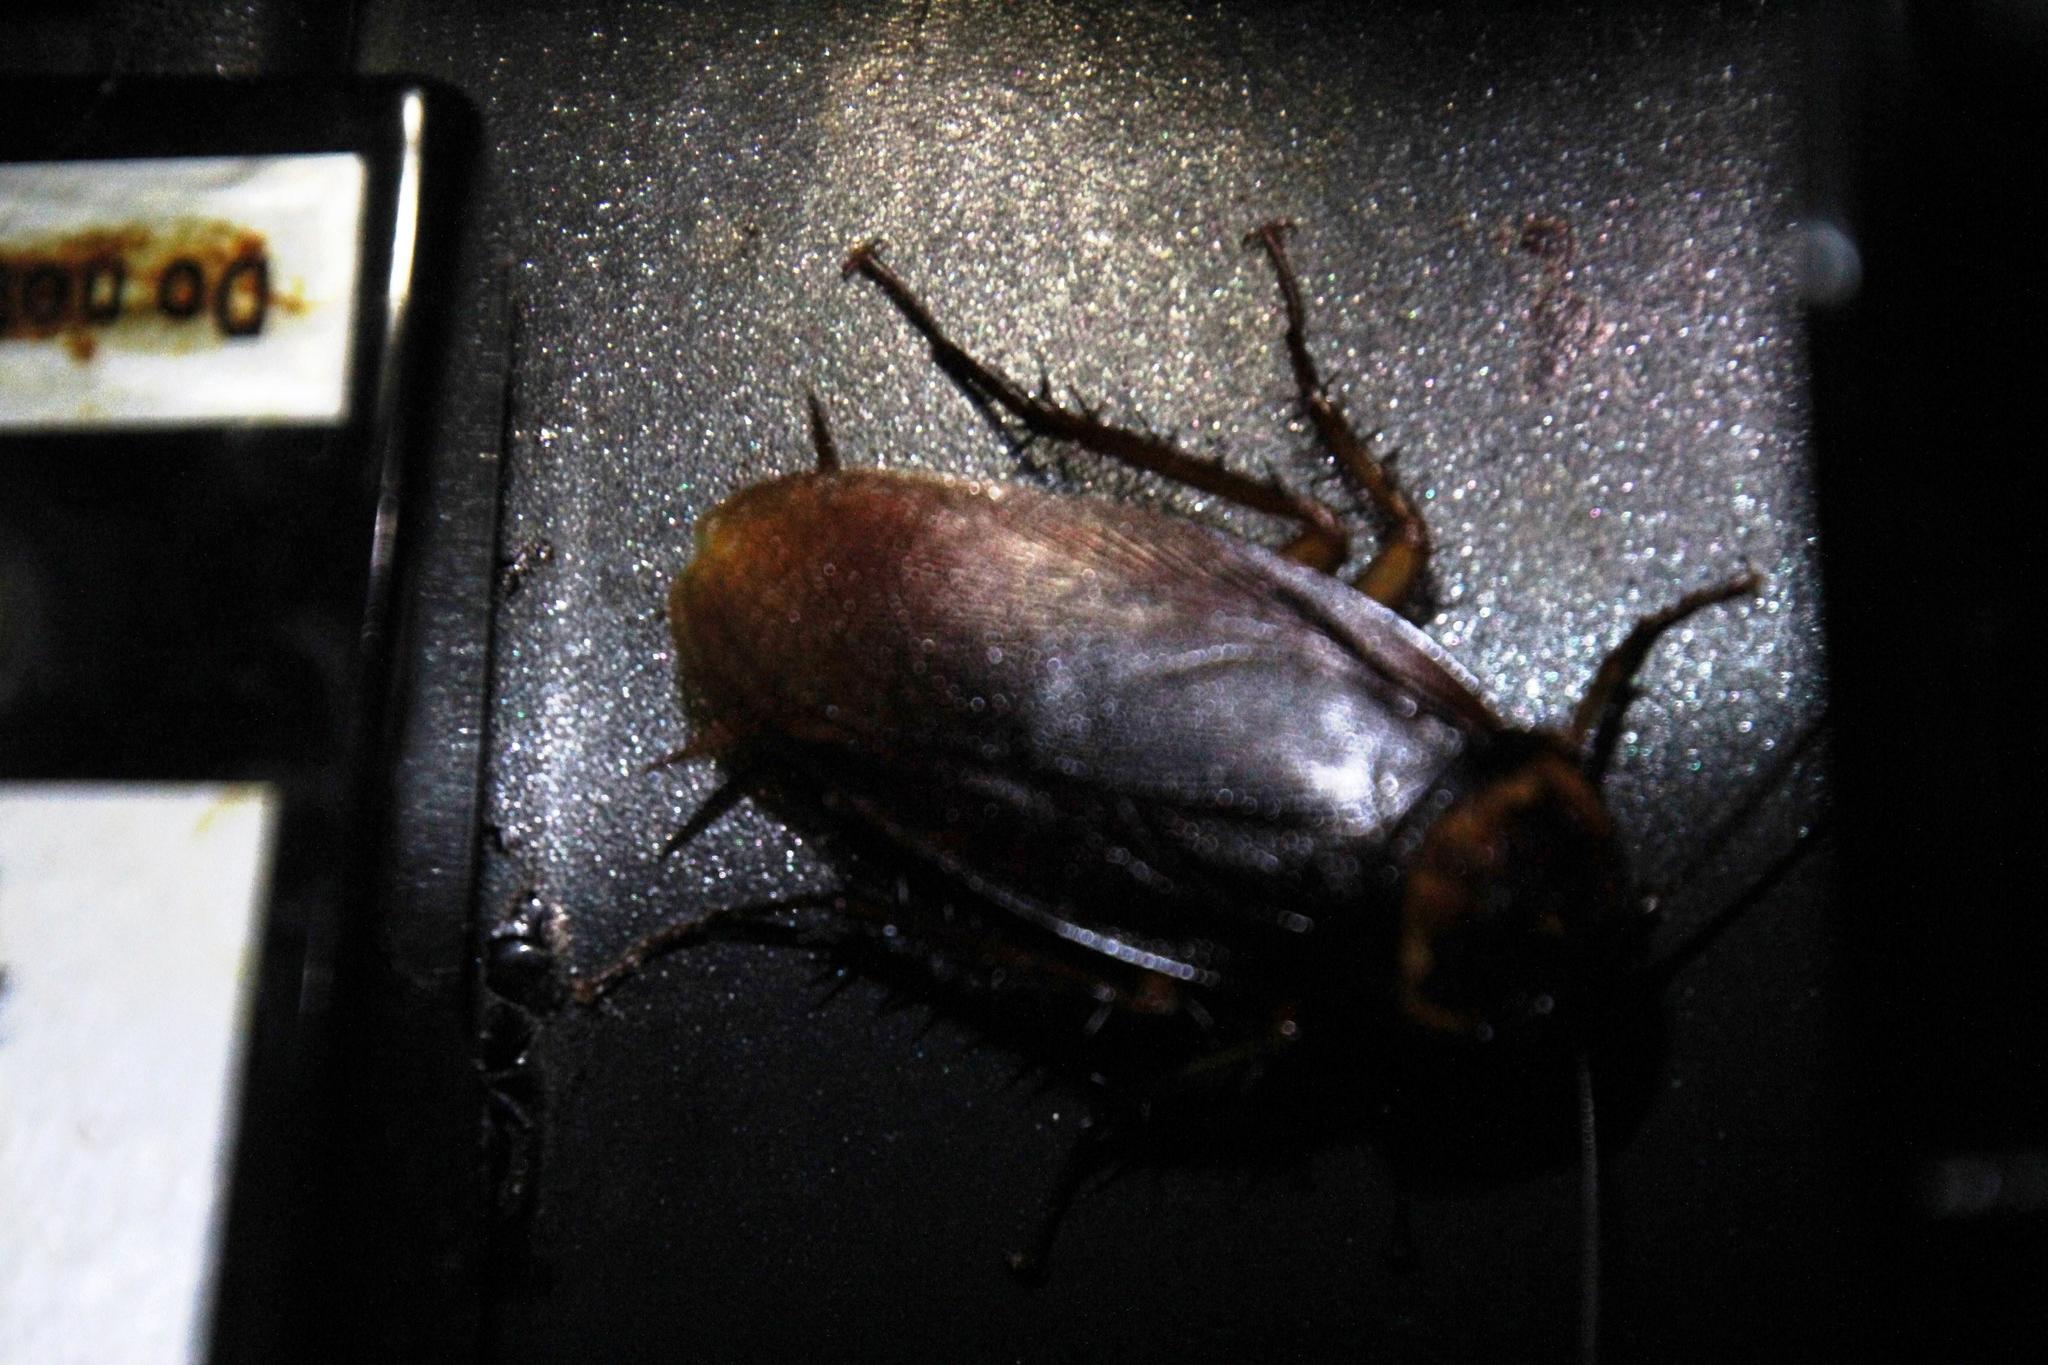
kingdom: Animalia
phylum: Arthropoda
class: Insecta
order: Blattodea
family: Blattidae
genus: Periplaneta
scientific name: Periplaneta americana
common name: American cockroach
